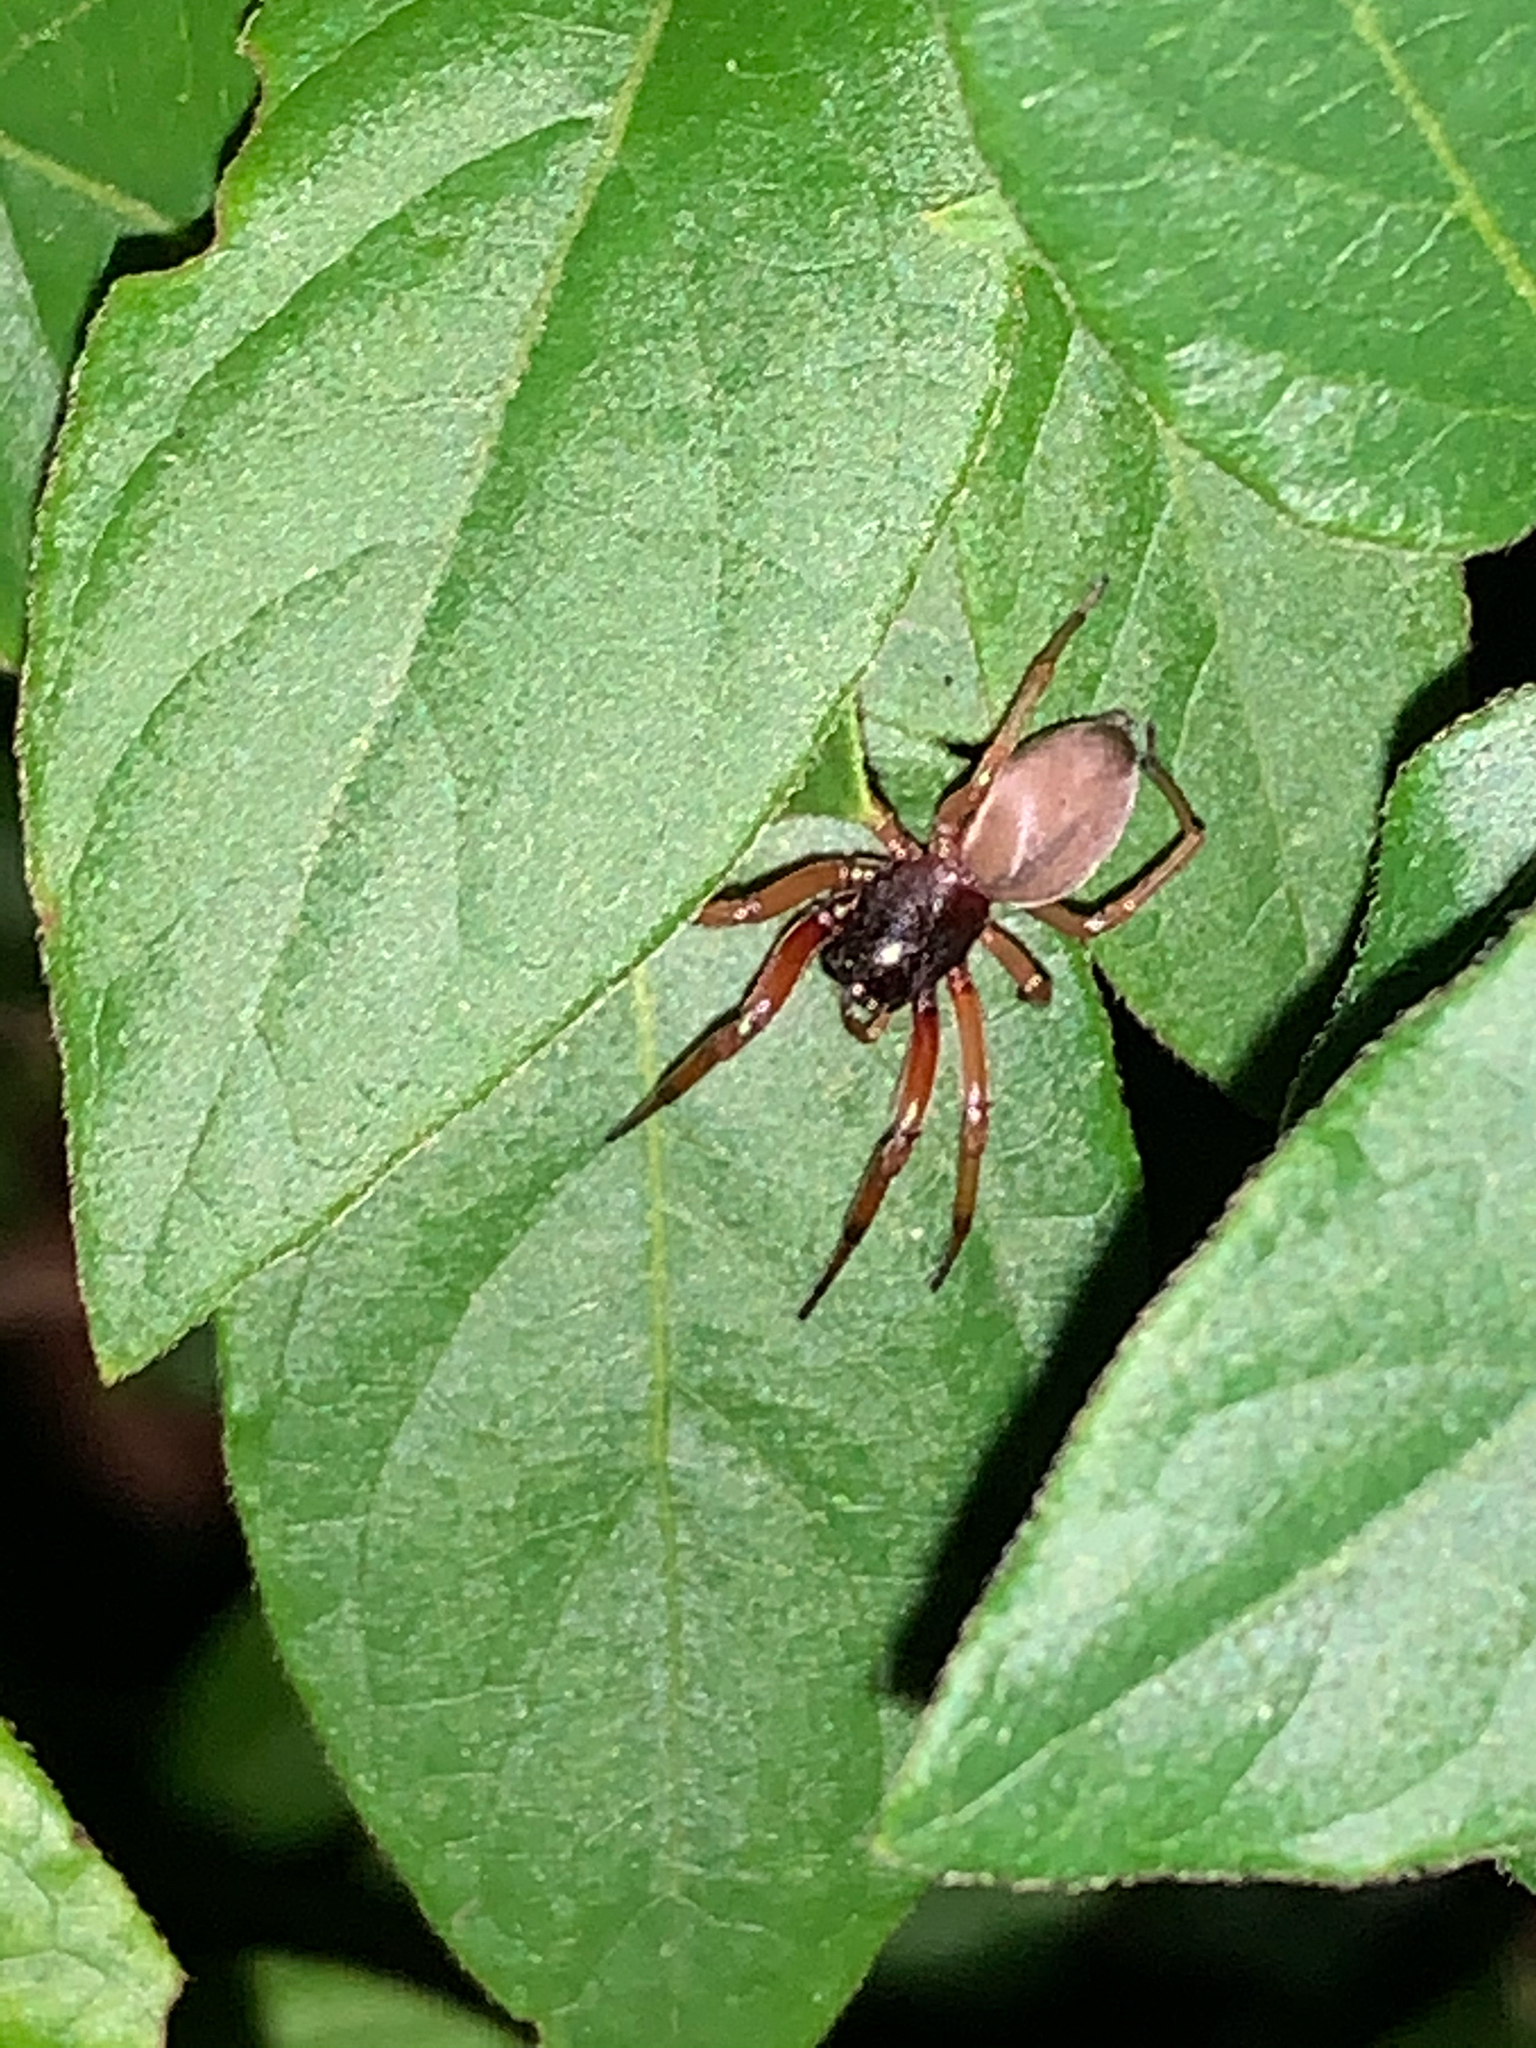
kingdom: Animalia
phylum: Arthropoda
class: Arachnida
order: Araneae
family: Trachelidae
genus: Trachelas
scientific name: Trachelas tranquillus
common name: Broad-faced sac spider
